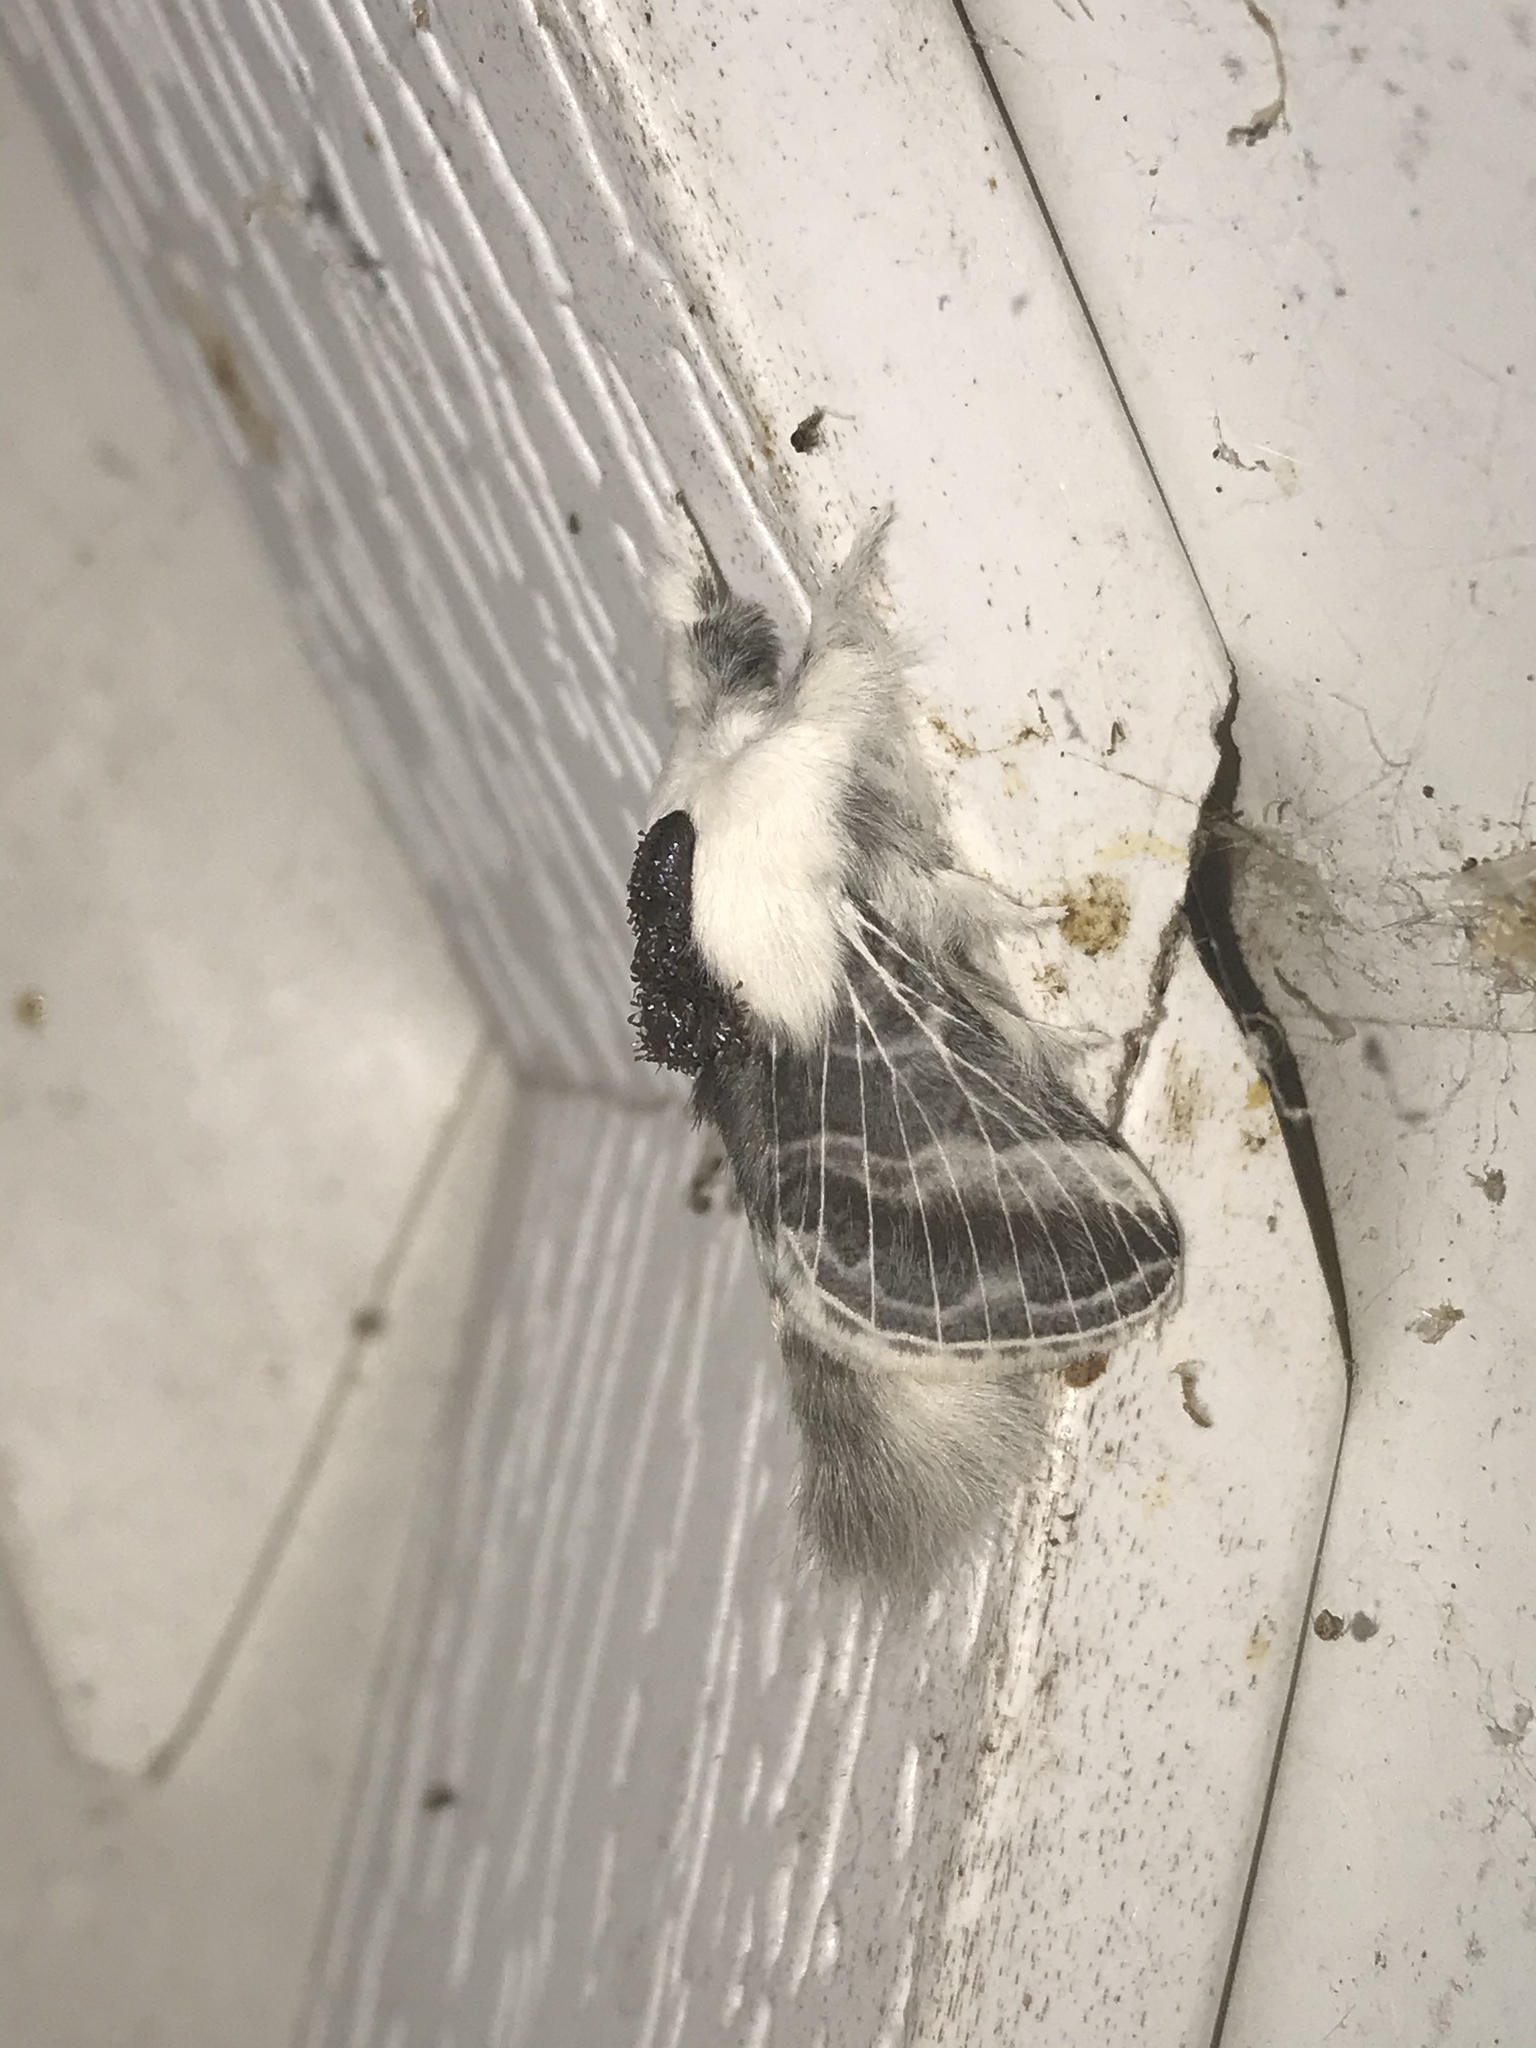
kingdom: Animalia
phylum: Arthropoda
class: Insecta
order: Lepidoptera
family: Lasiocampidae
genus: Tolype
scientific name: Tolype velleda
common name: Large tolype moth
